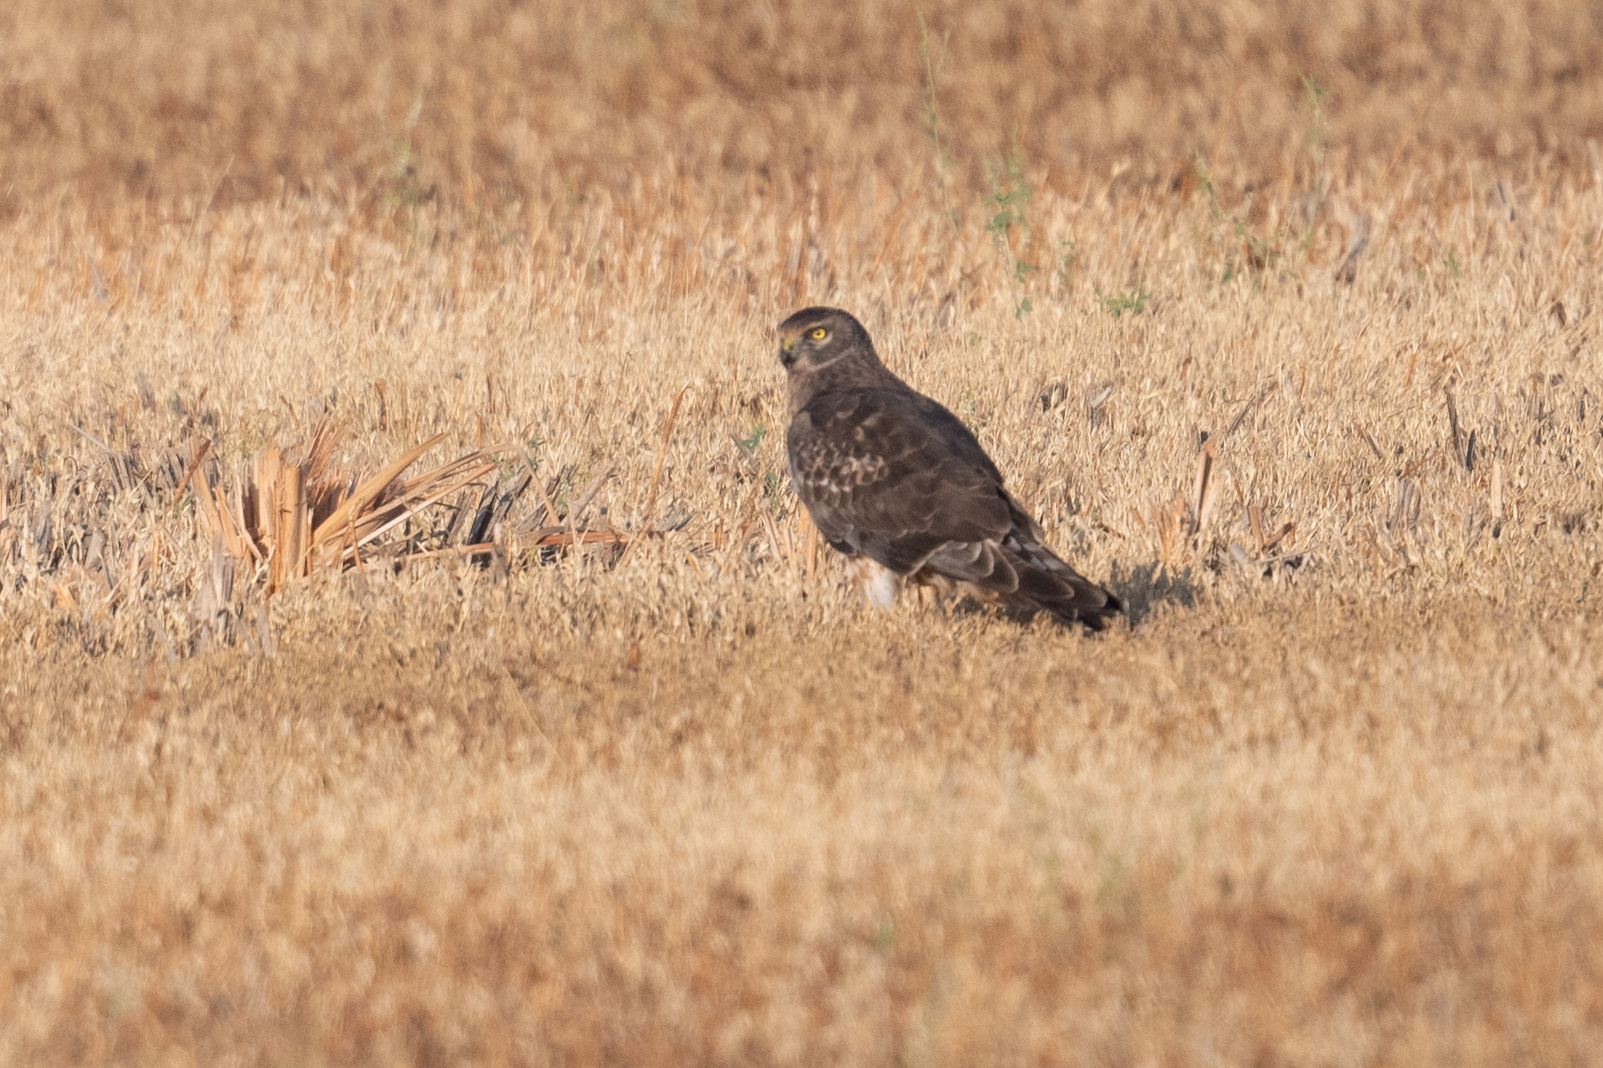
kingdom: Animalia
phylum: Chordata
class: Aves
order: Accipitriformes
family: Accipitridae
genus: Circus
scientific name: Circus cyaneus
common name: Hen harrier
